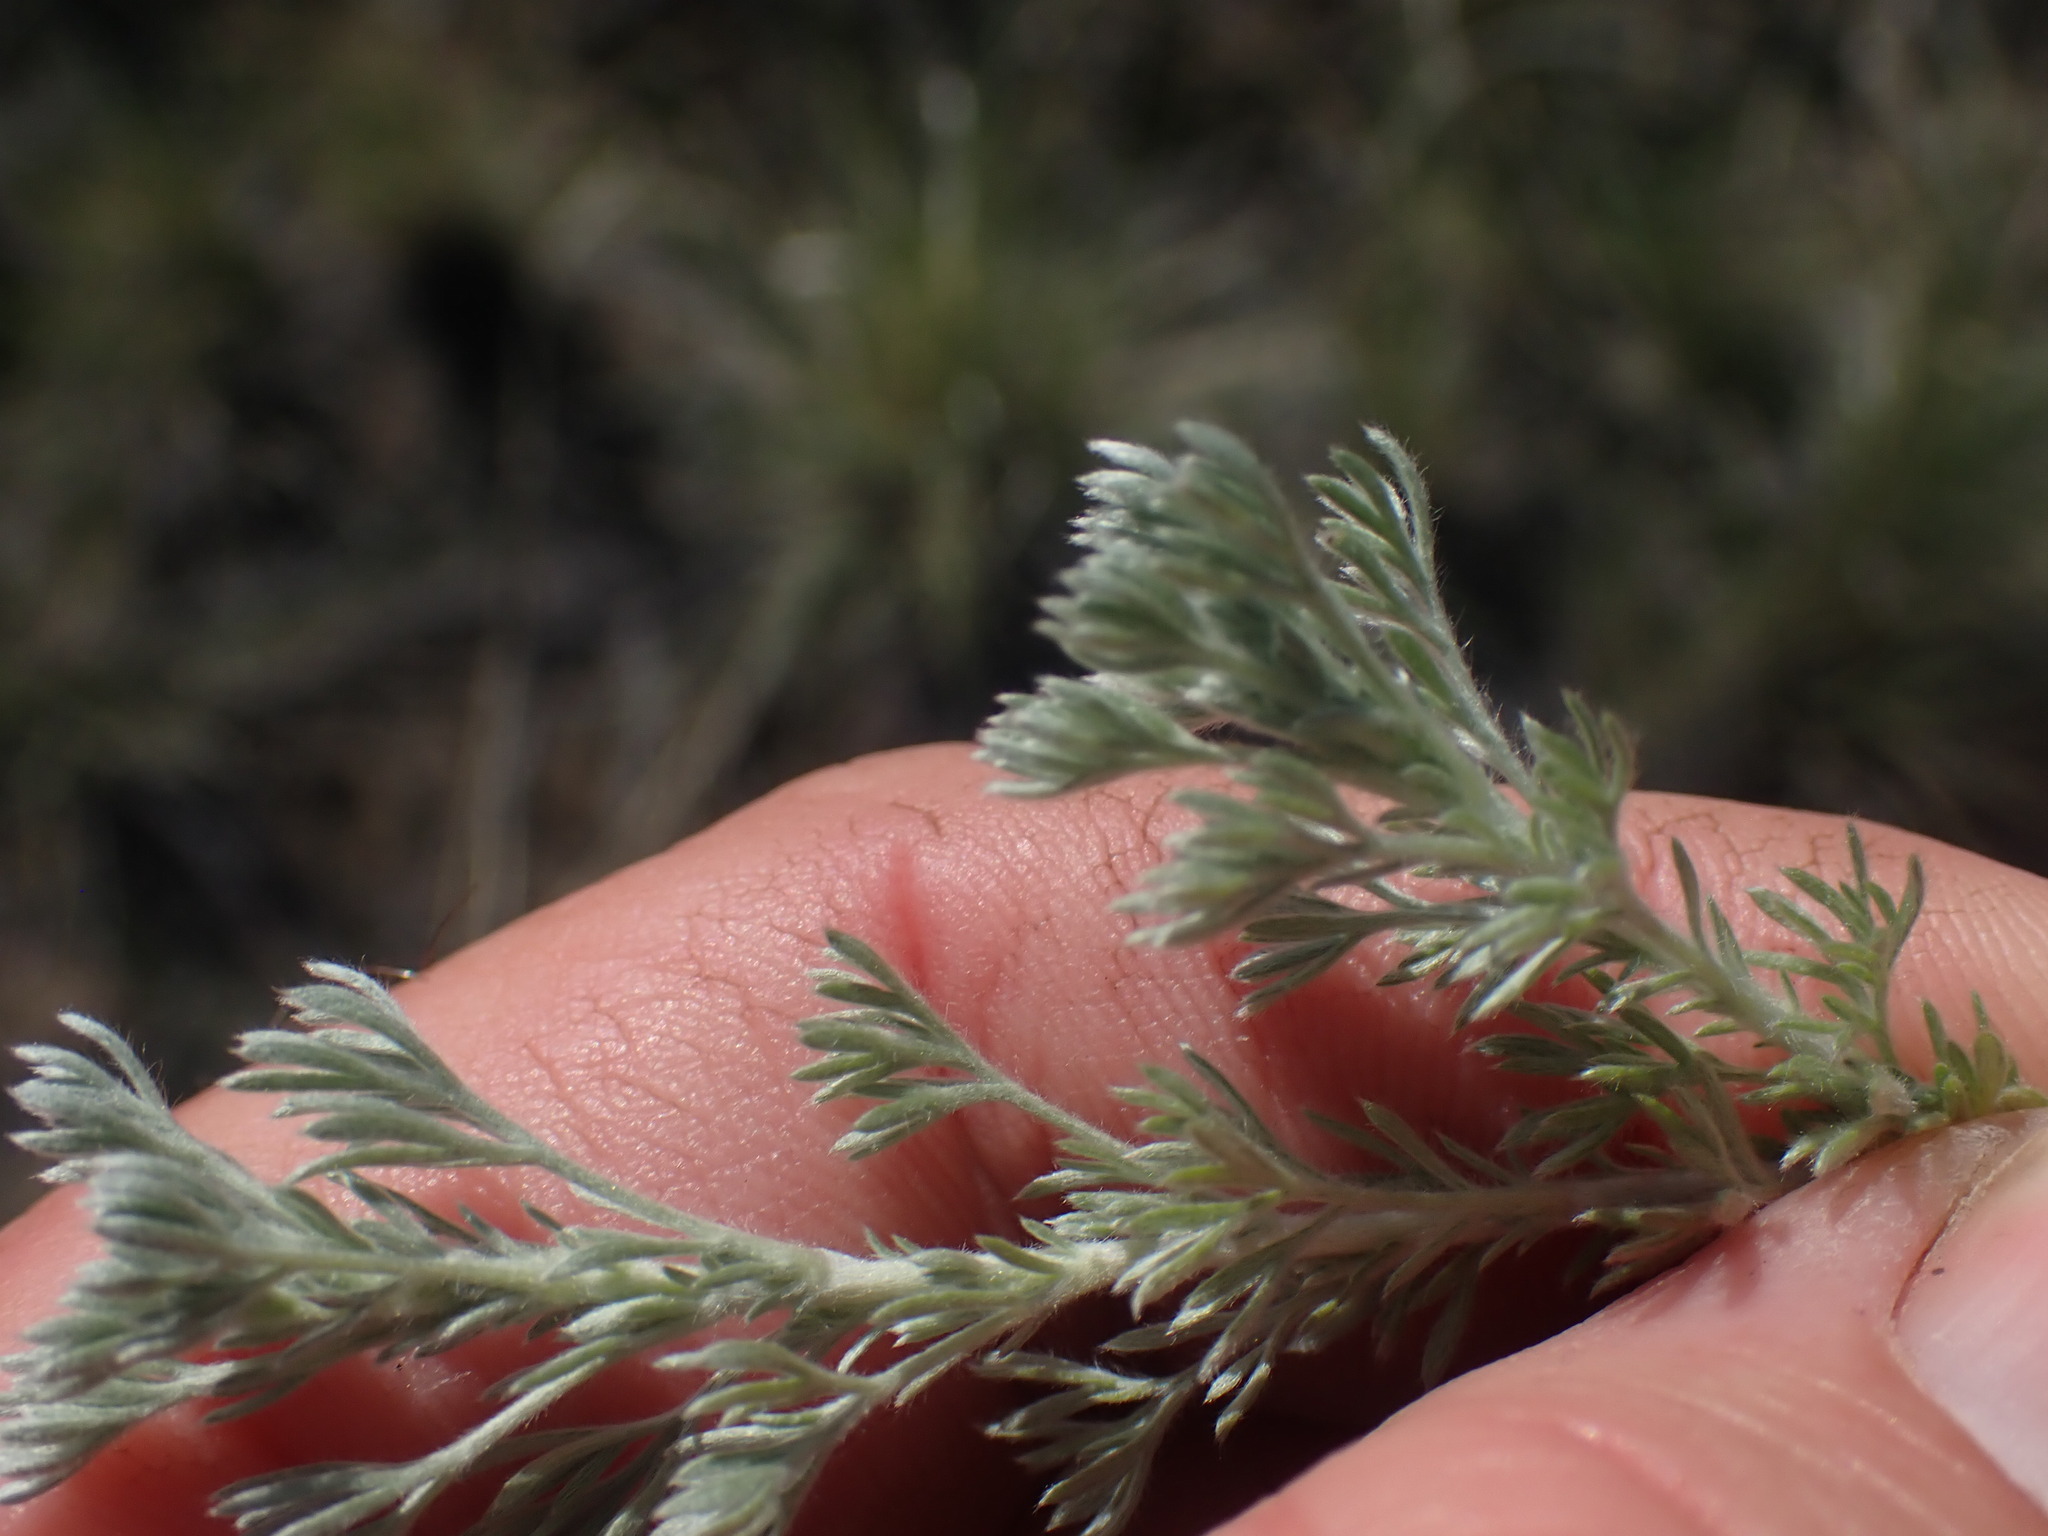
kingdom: Plantae
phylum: Tracheophyta
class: Magnoliopsida
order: Asterales
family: Asteraceae
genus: Artemisia
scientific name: Artemisia frigida
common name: Prairie sagewort
